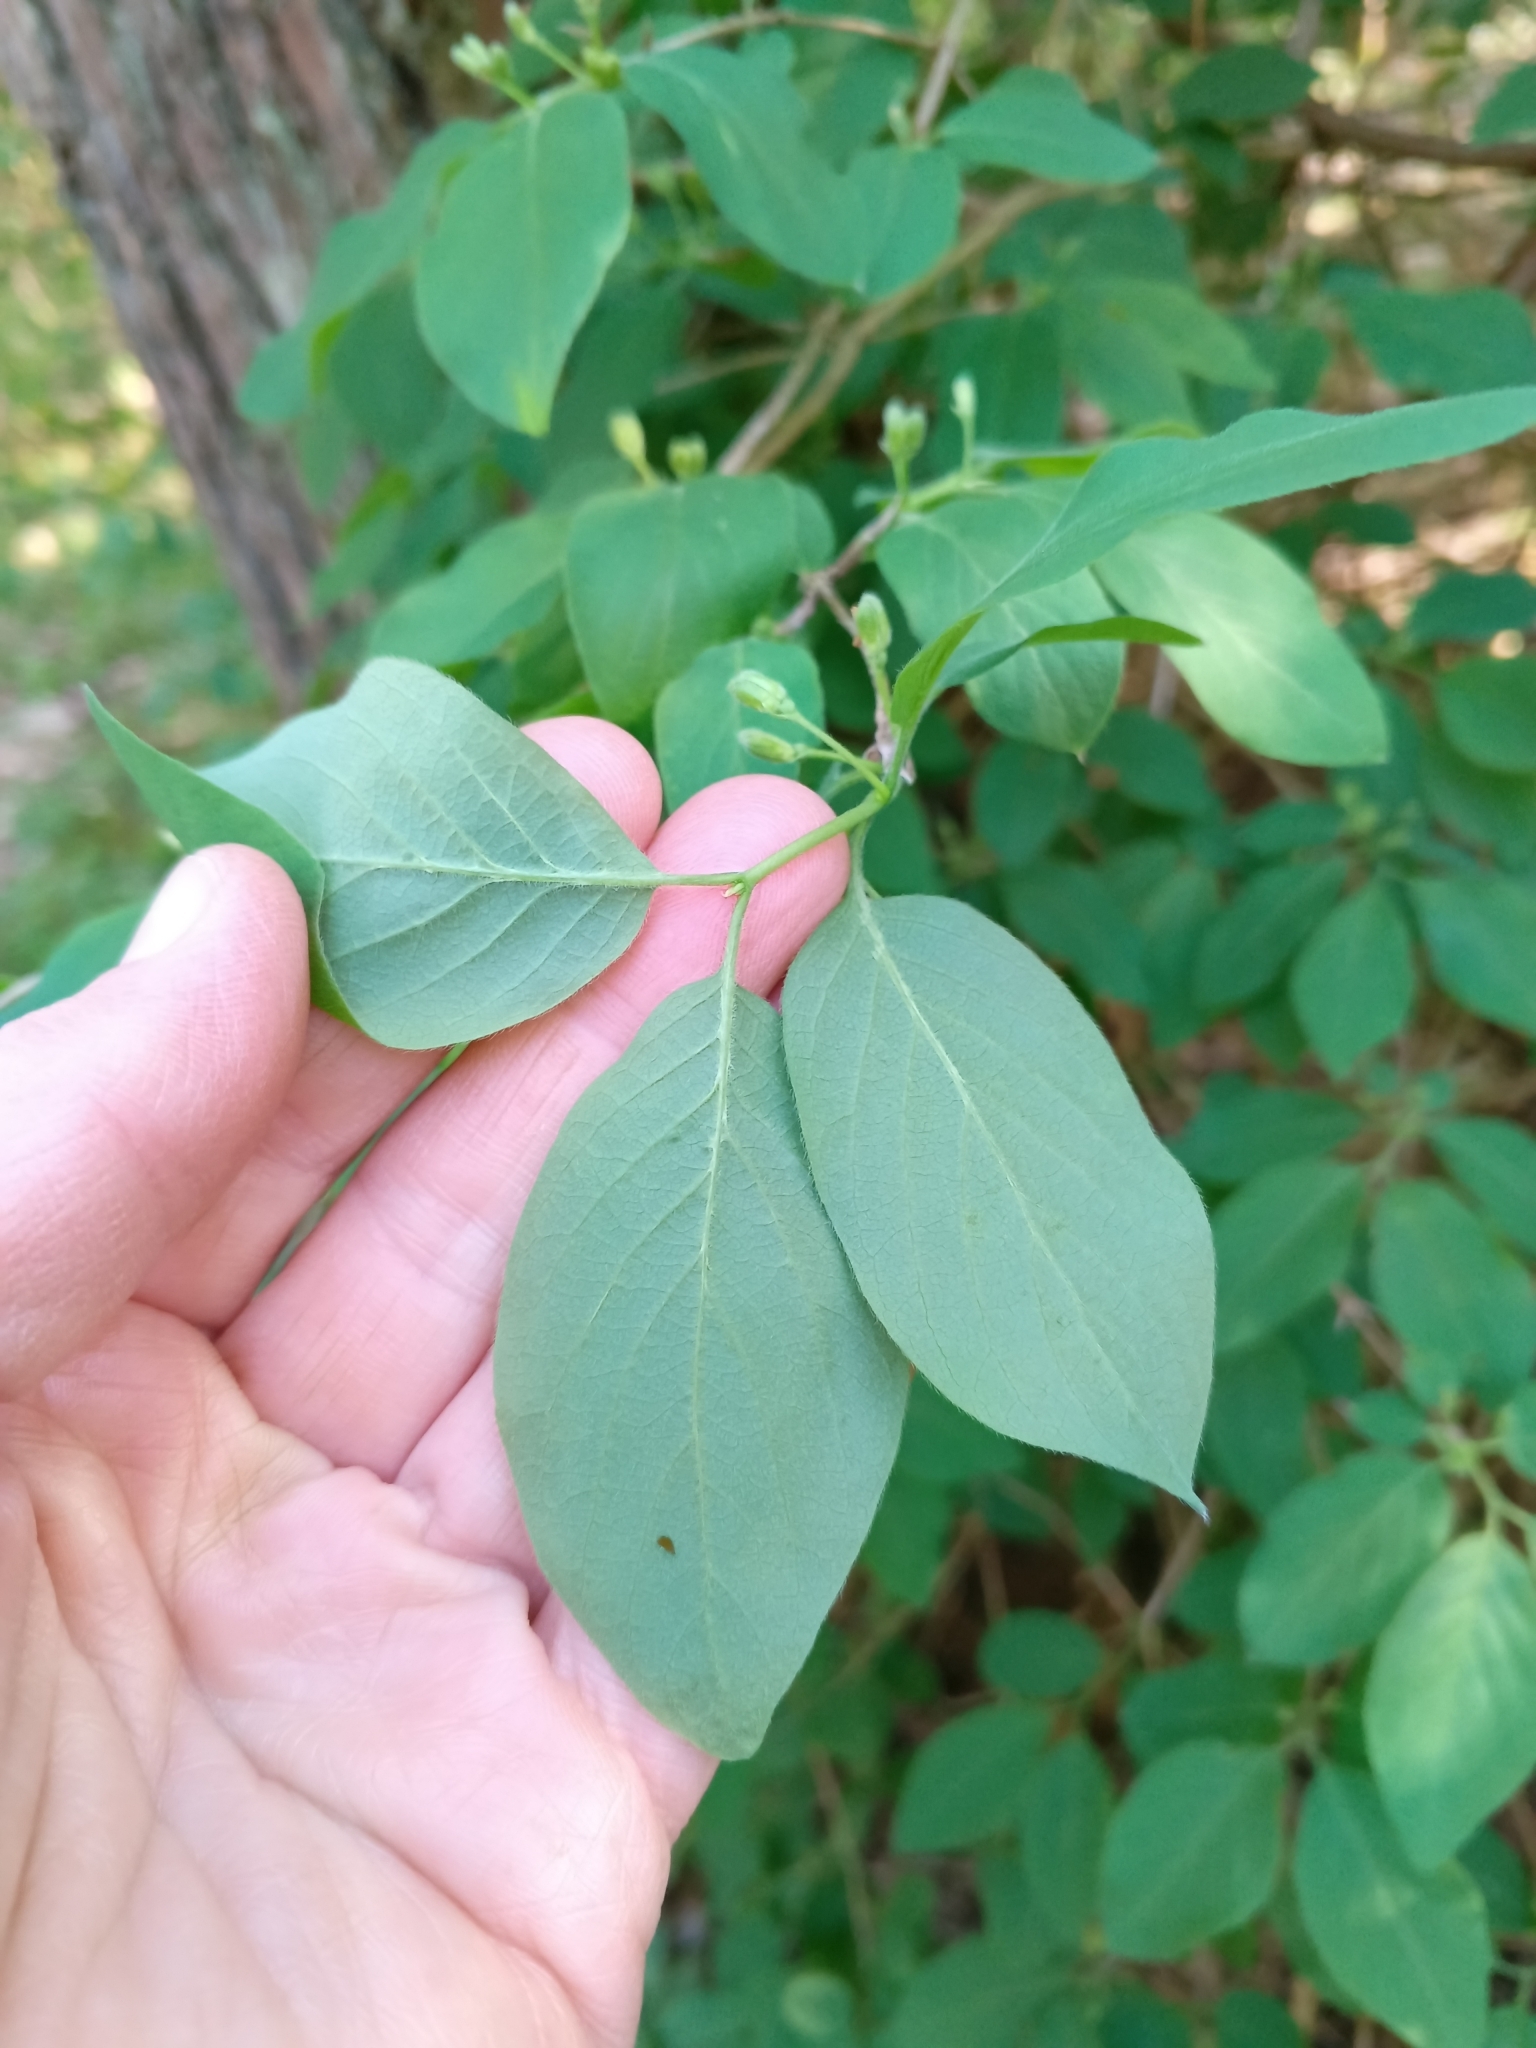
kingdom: Plantae
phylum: Tracheophyta
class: Magnoliopsida
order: Dipsacales
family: Caprifoliaceae
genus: Lonicera
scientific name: Lonicera xylosteum
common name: Fly honeysuckle
